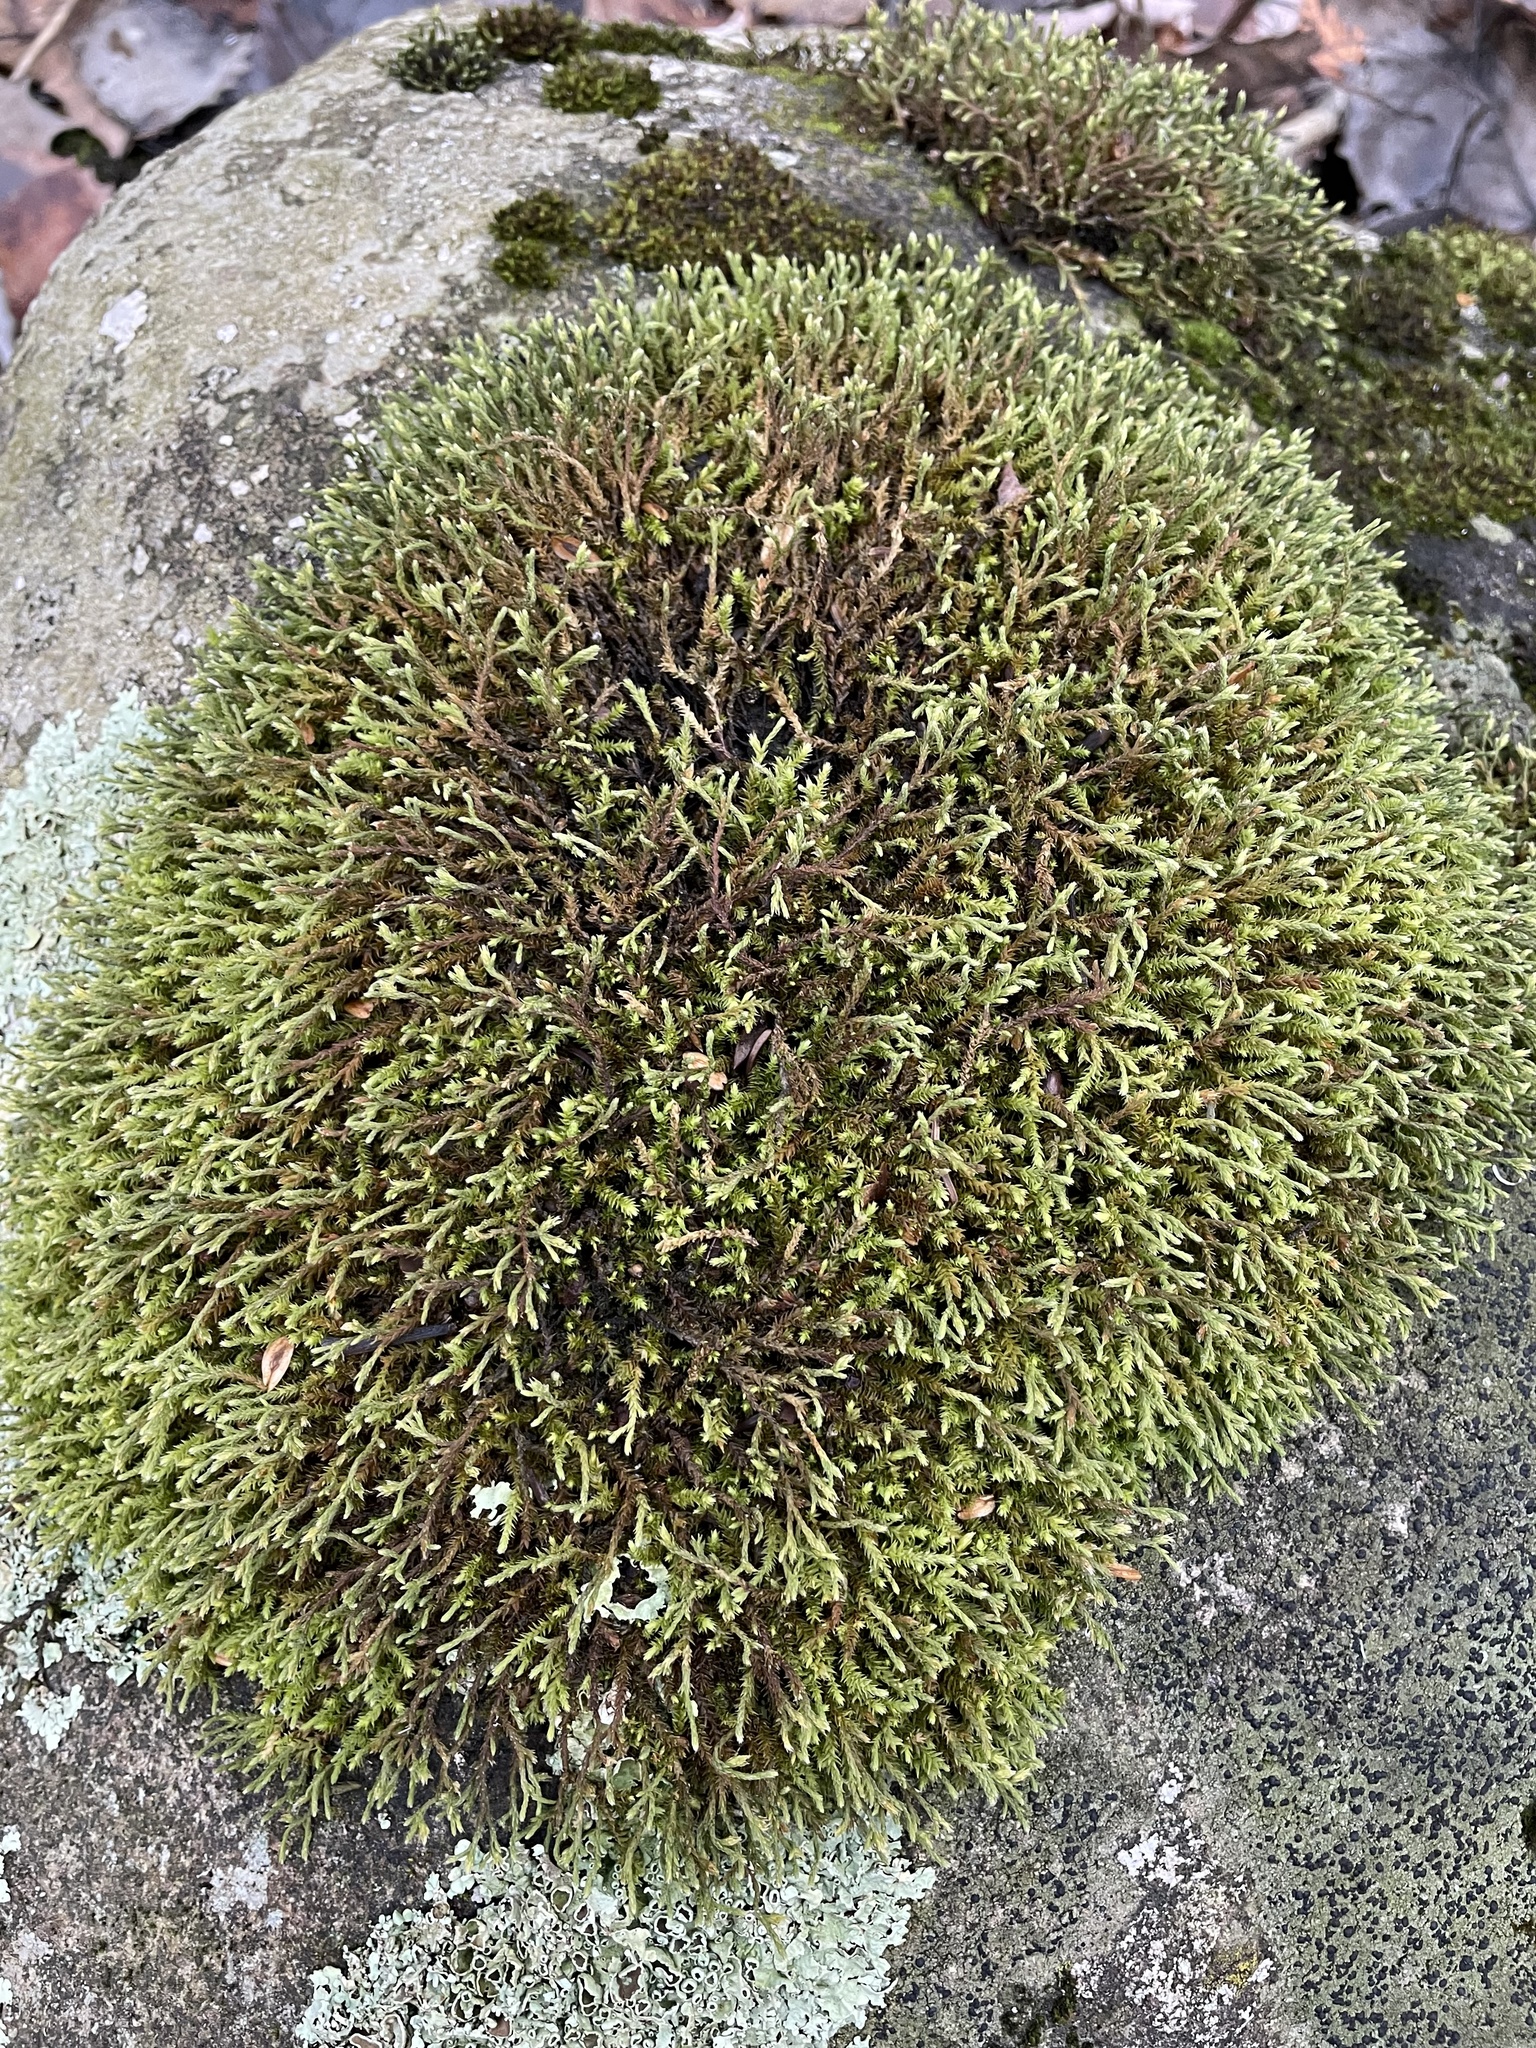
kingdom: Plantae
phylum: Bryophyta
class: Bryopsida
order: Hedwigiales
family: Hedwigiaceae
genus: Hedwigia
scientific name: Hedwigia ciliata
